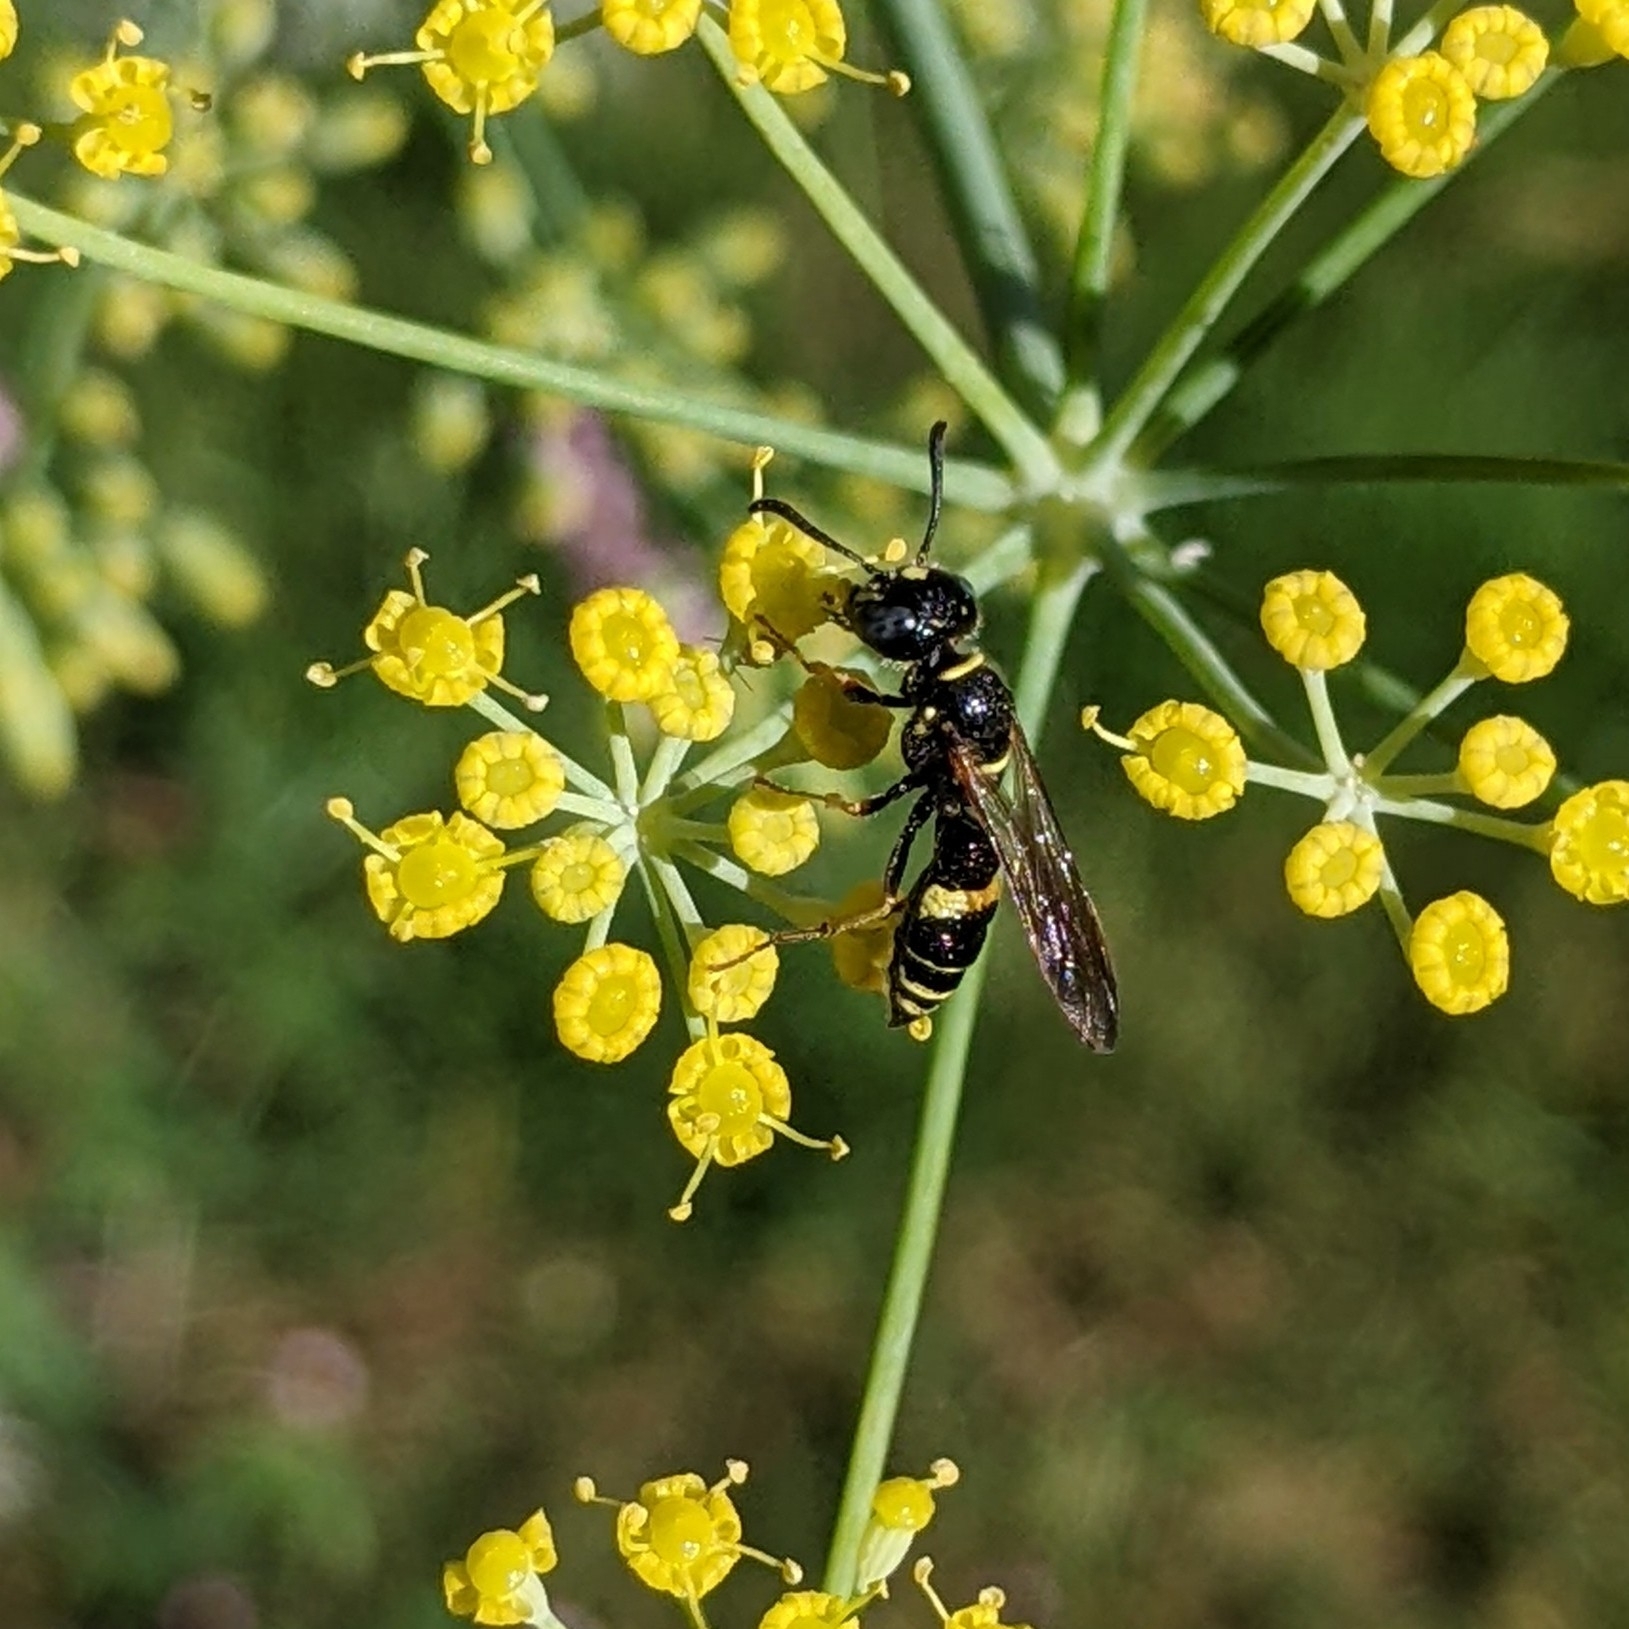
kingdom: Animalia
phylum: Arthropoda
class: Insecta
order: Hymenoptera
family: Crabronidae
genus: Philanthus
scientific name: Philanthus gibbosus
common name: Humped beewolf
